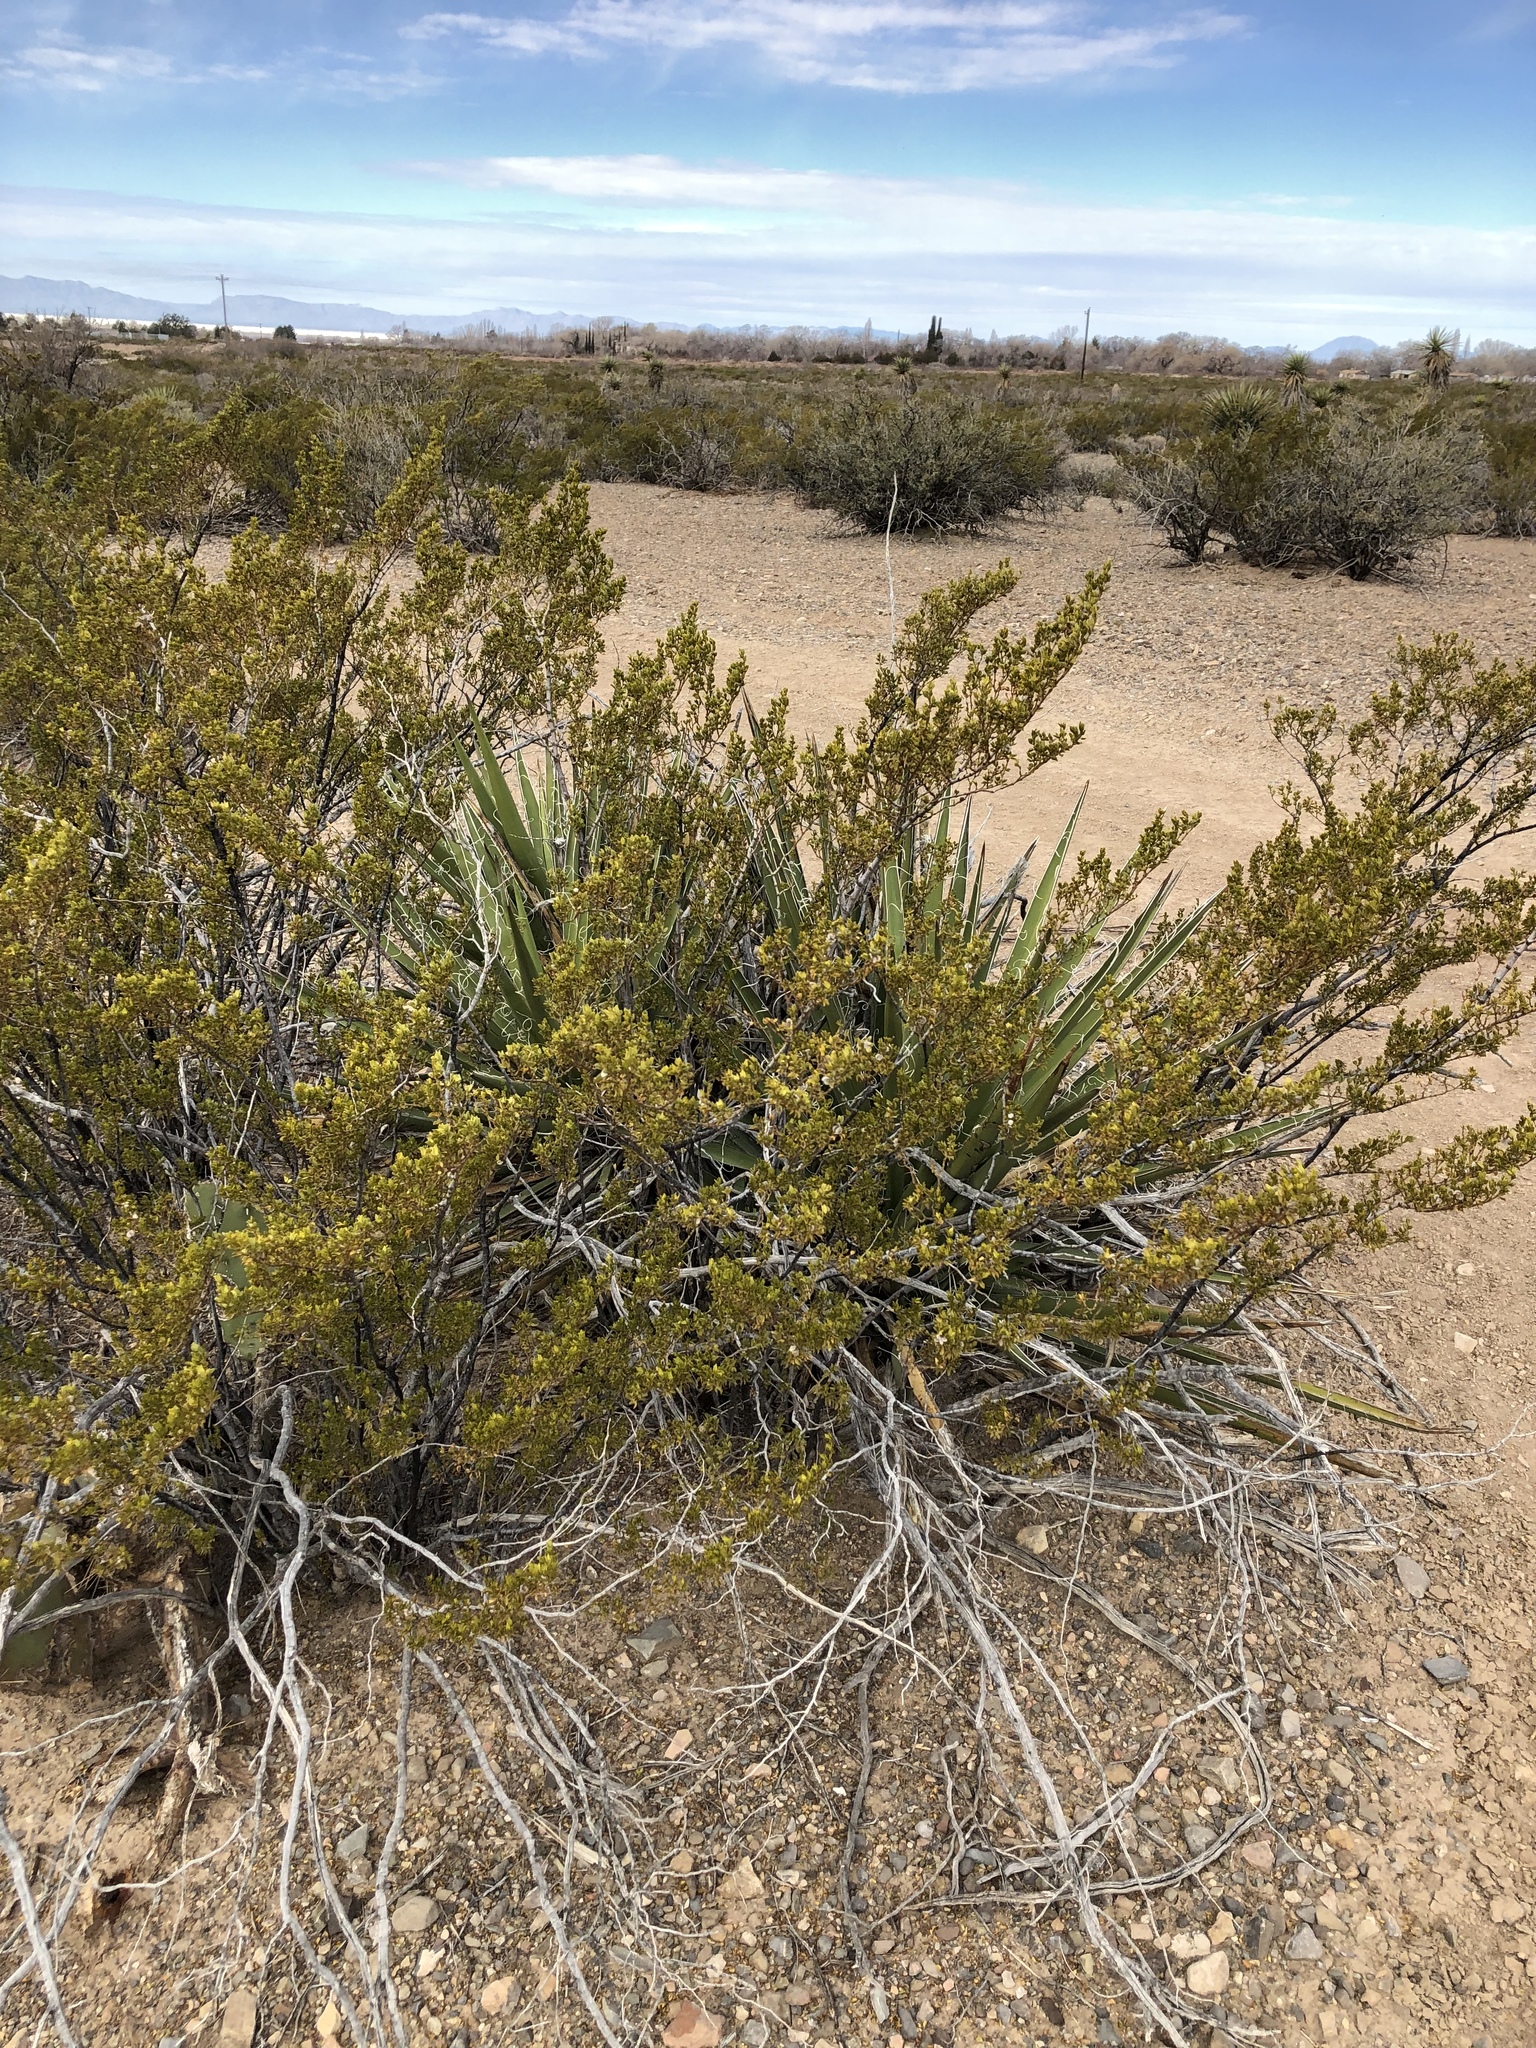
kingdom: Plantae
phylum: Tracheophyta
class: Magnoliopsida
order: Zygophyllales
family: Zygophyllaceae
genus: Larrea
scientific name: Larrea tridentata
